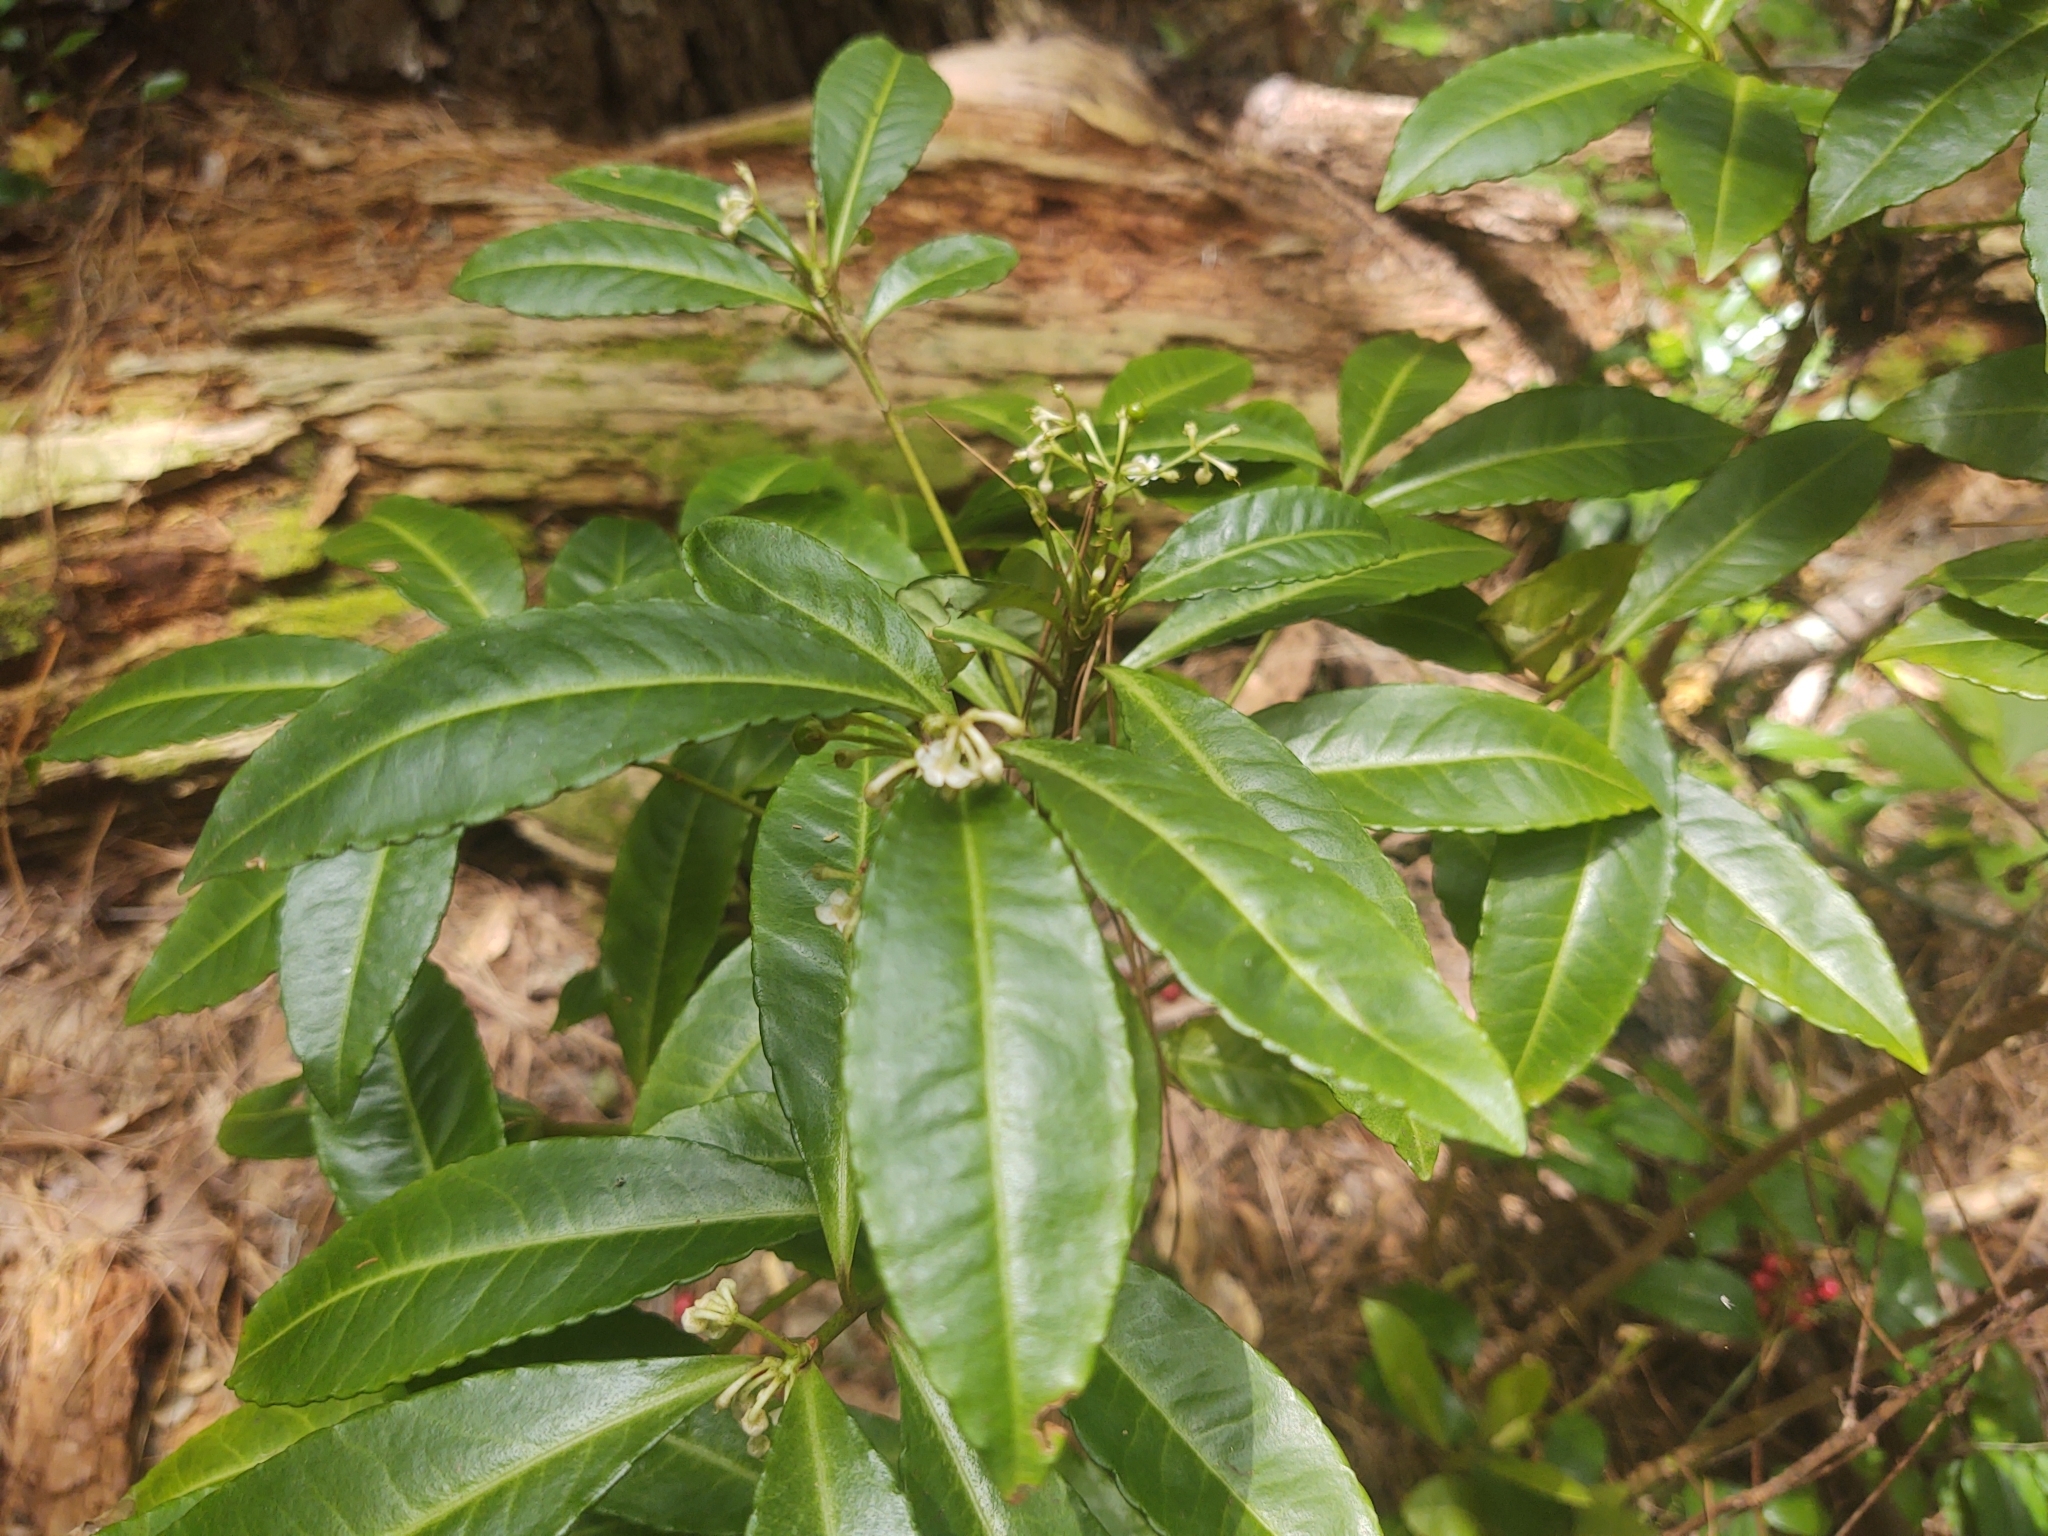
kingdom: Plantae
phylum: Tracheophyta
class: Magnoliopsida
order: Ericales
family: Primulaceae
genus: Ardisia
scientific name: Ardisia crenata
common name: Hen's eyes
